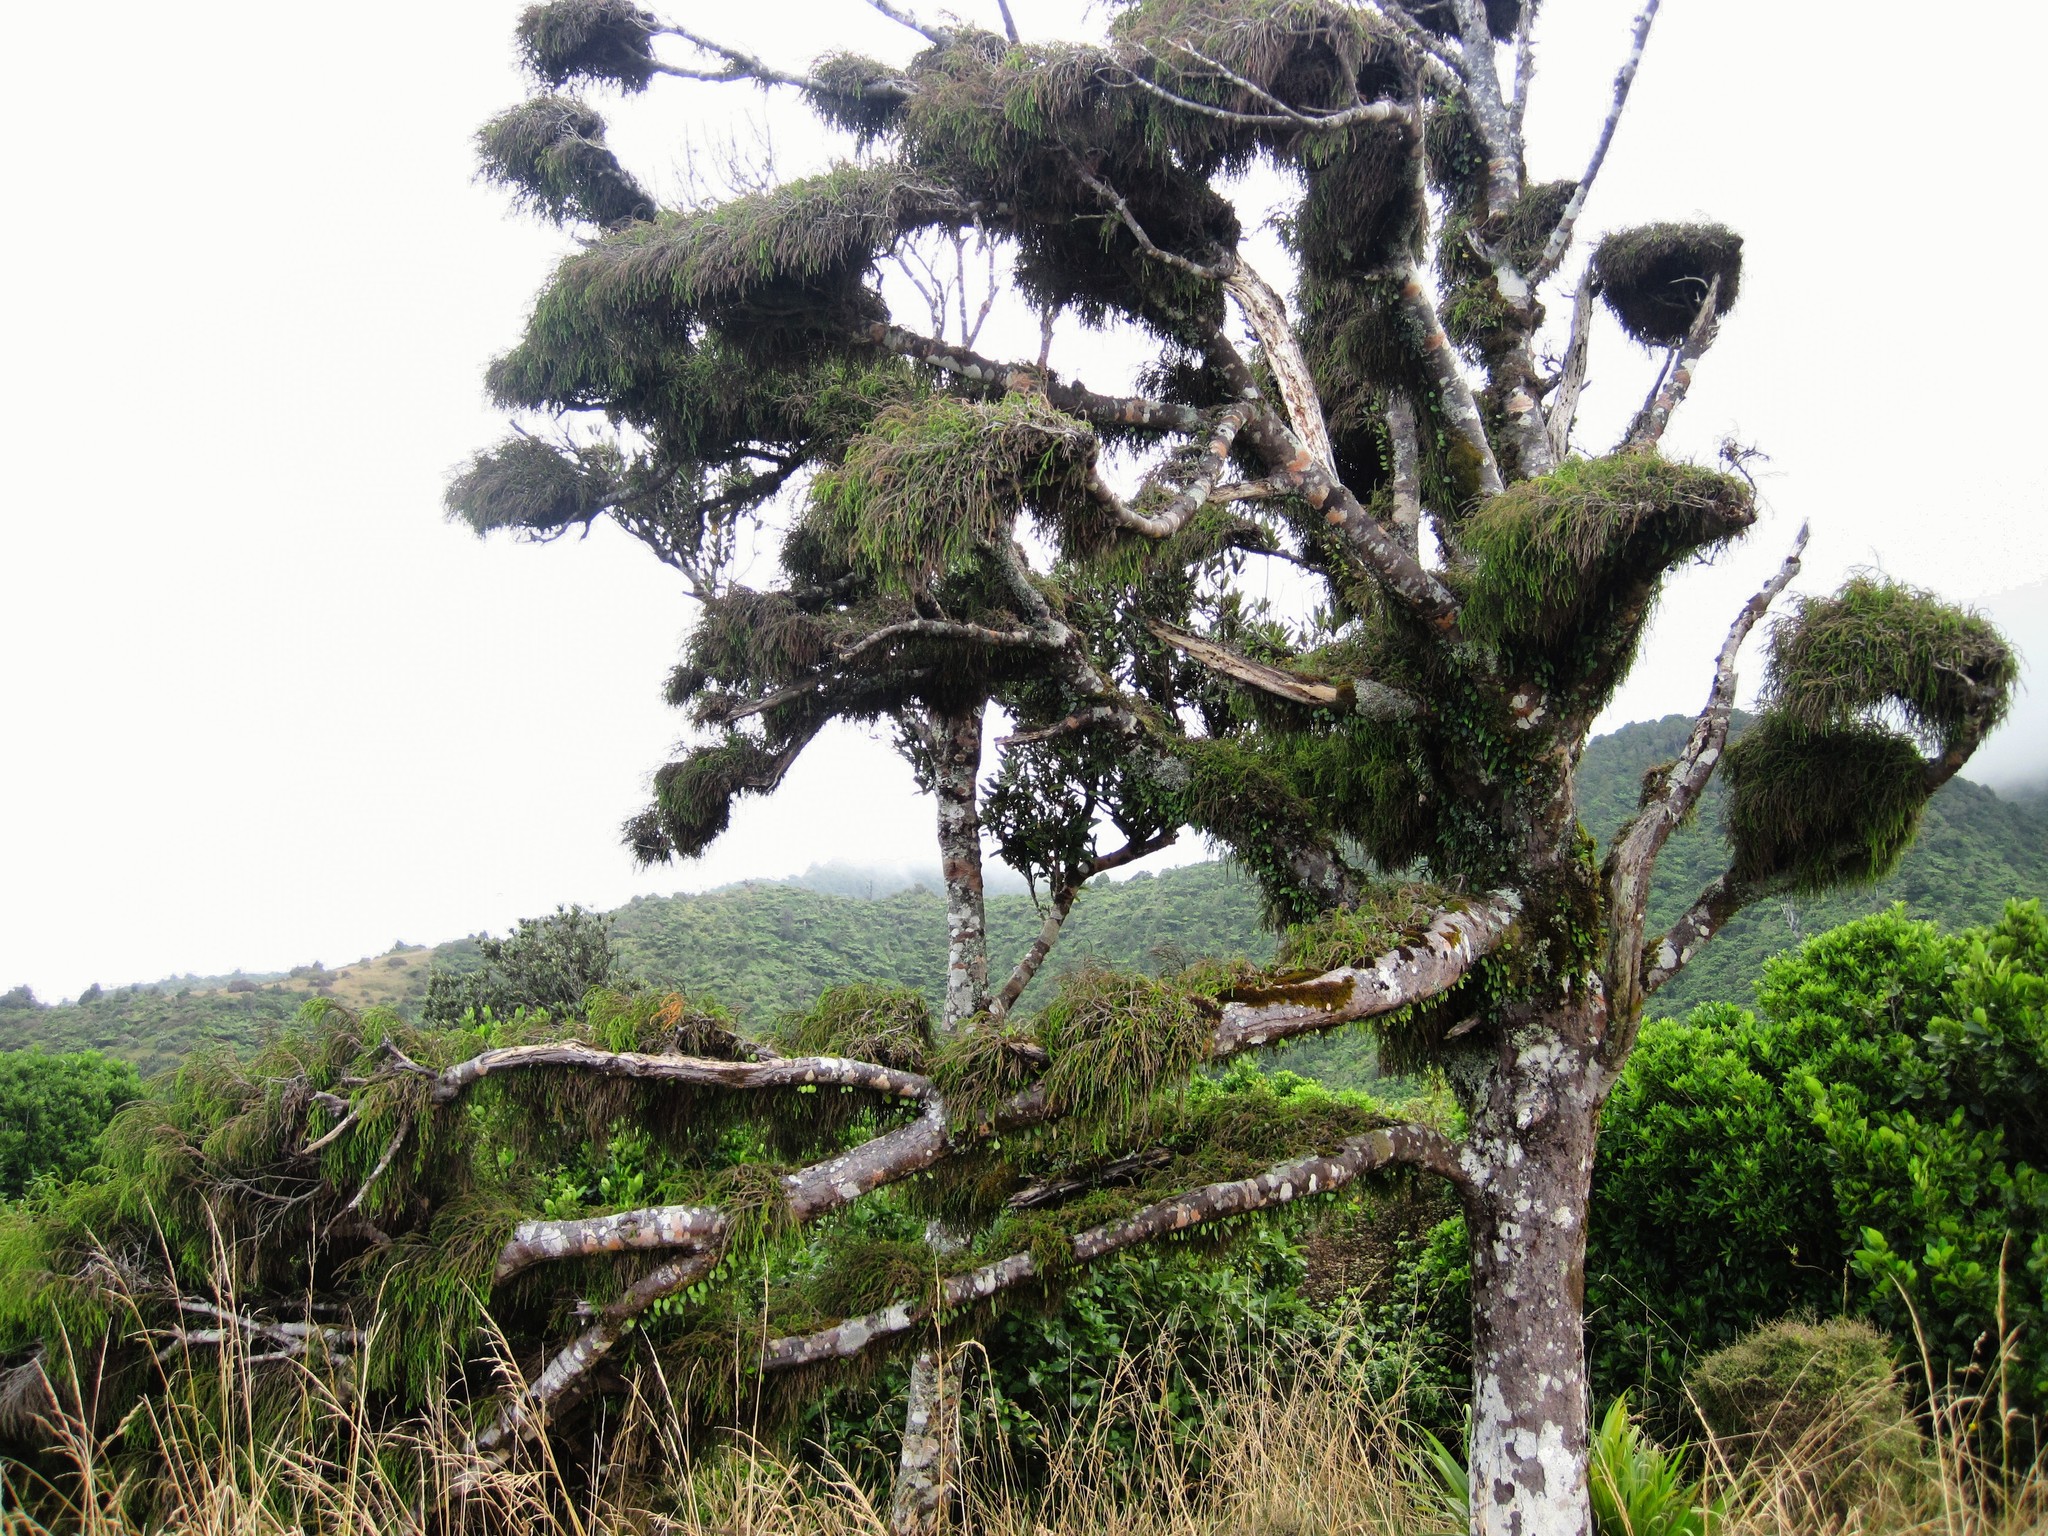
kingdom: Plantae
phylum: Tracheophyta
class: Pinopsida
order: Pinales
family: Podocarpaceae
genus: Dacrydium
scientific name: Dacrydium cupressinum
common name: Red pine
